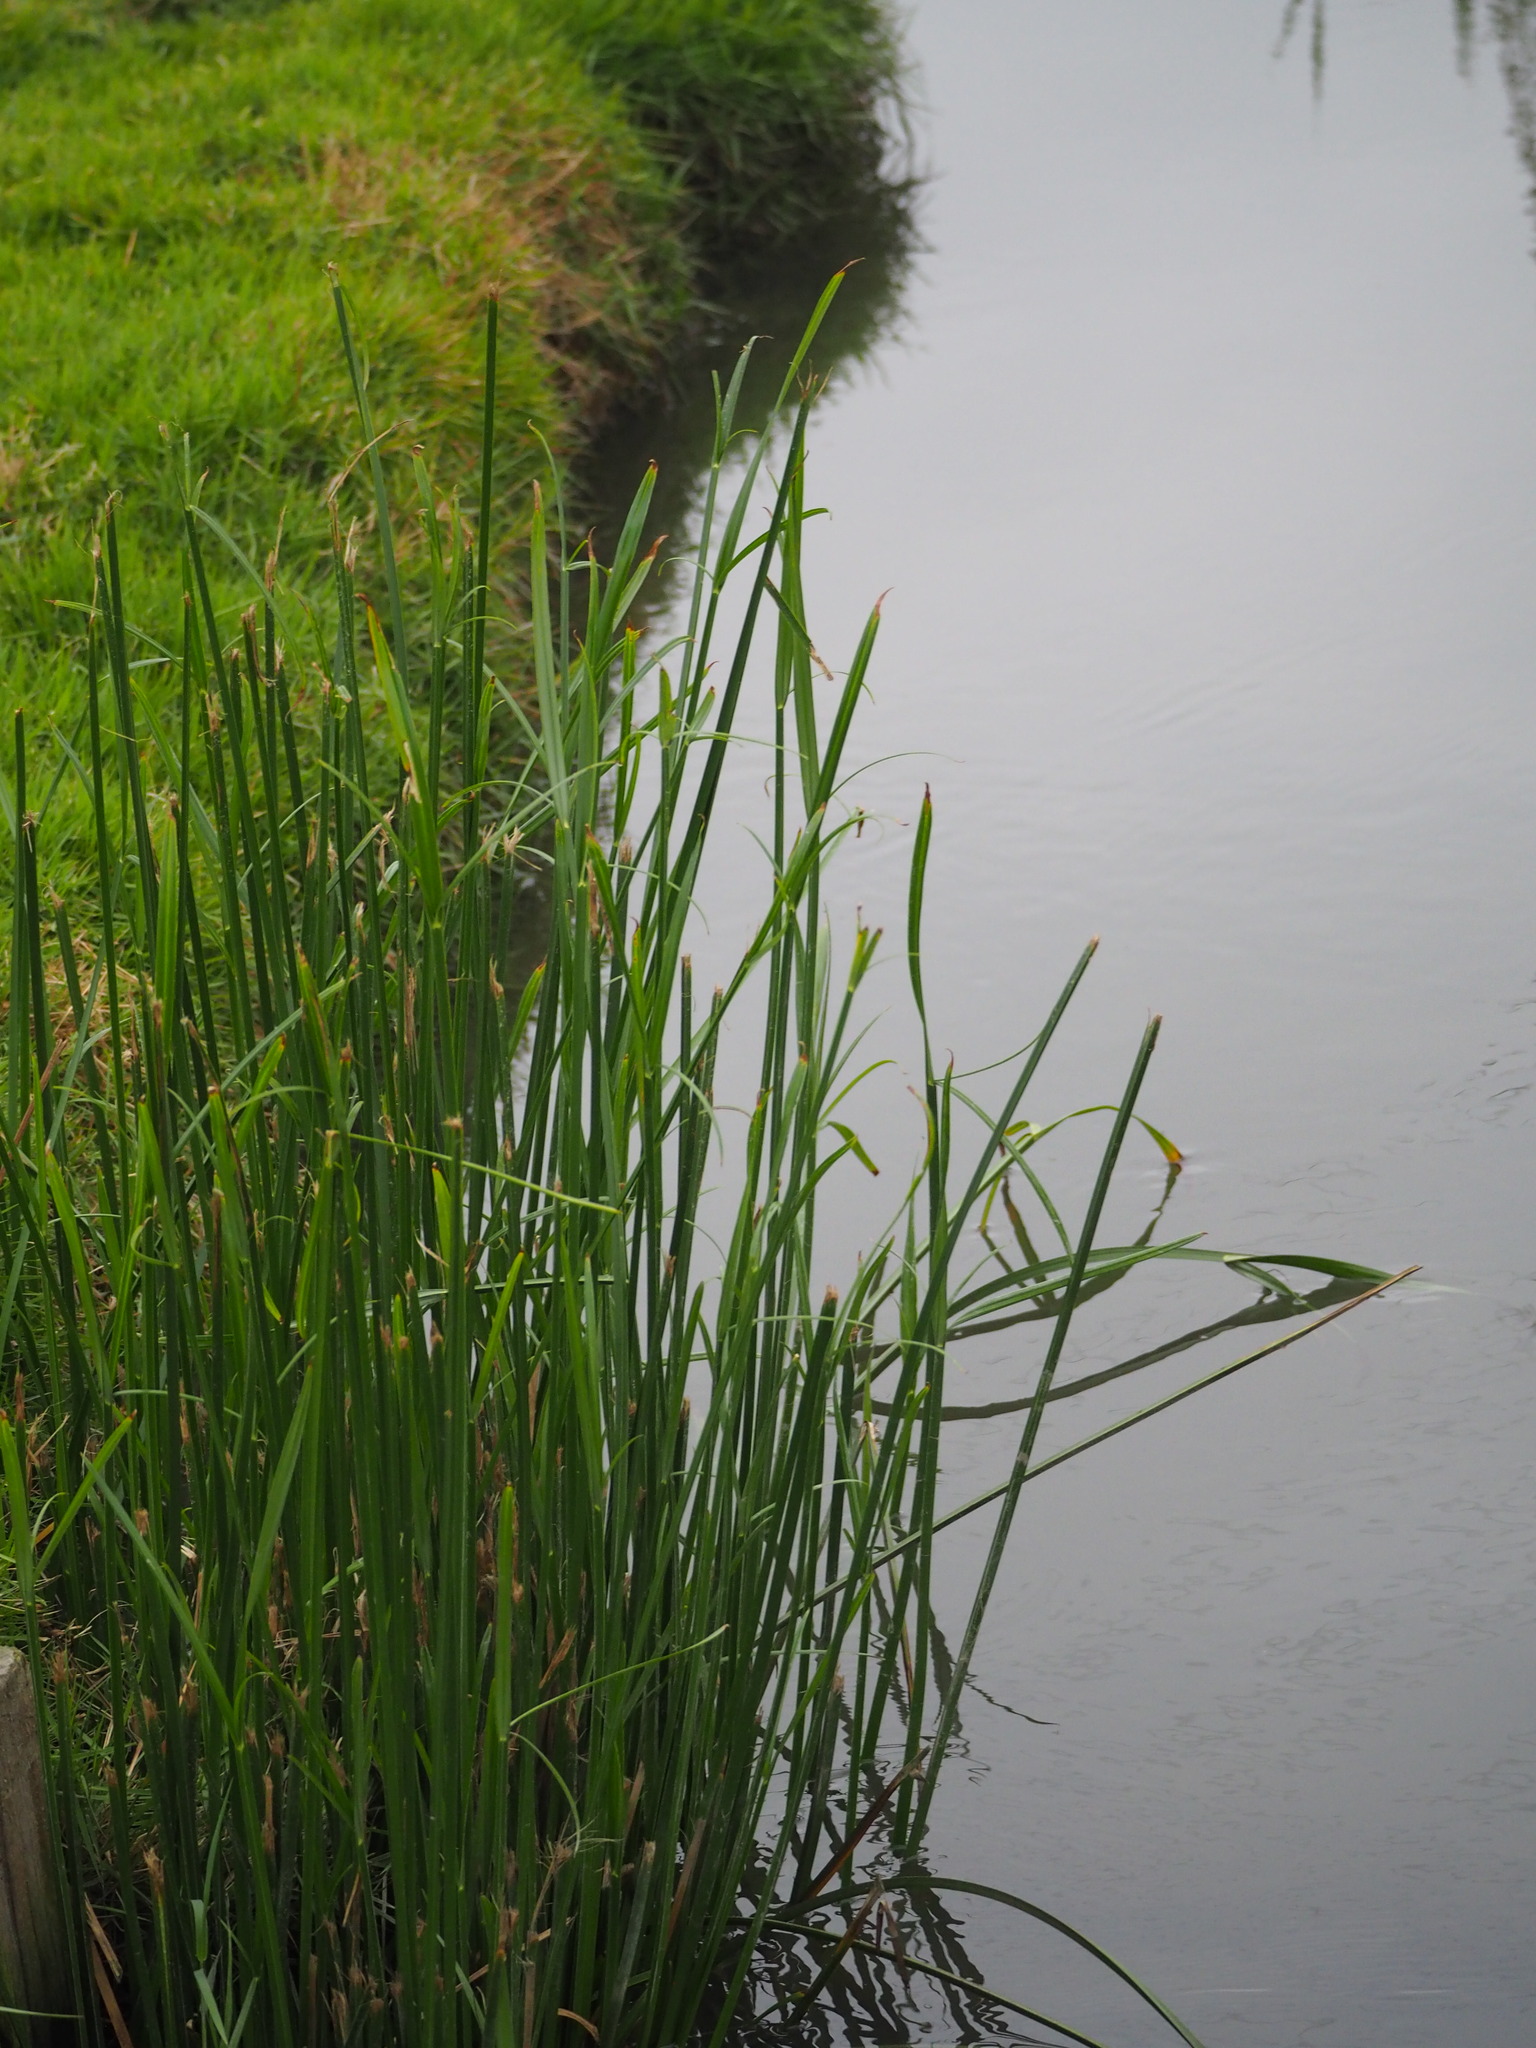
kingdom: Plantae
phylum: Tracheophyta
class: Liliopsida
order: Poales
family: Cyperaceae
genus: Cyperus
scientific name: Cyperus malaccensis
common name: Shichito matgrass
